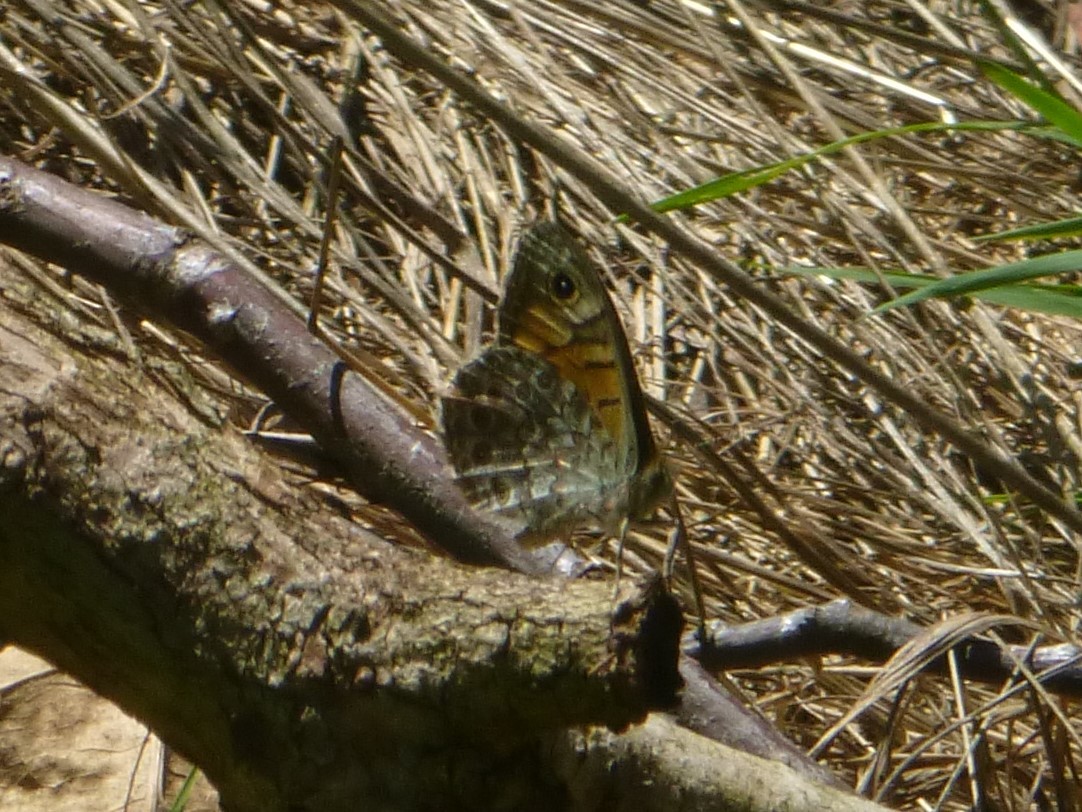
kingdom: Animalia
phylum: Arthropoda
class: Insecta
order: Lepidoptera
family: Nymphalidae
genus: Pararge
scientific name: Pararge Lasiommata megera
